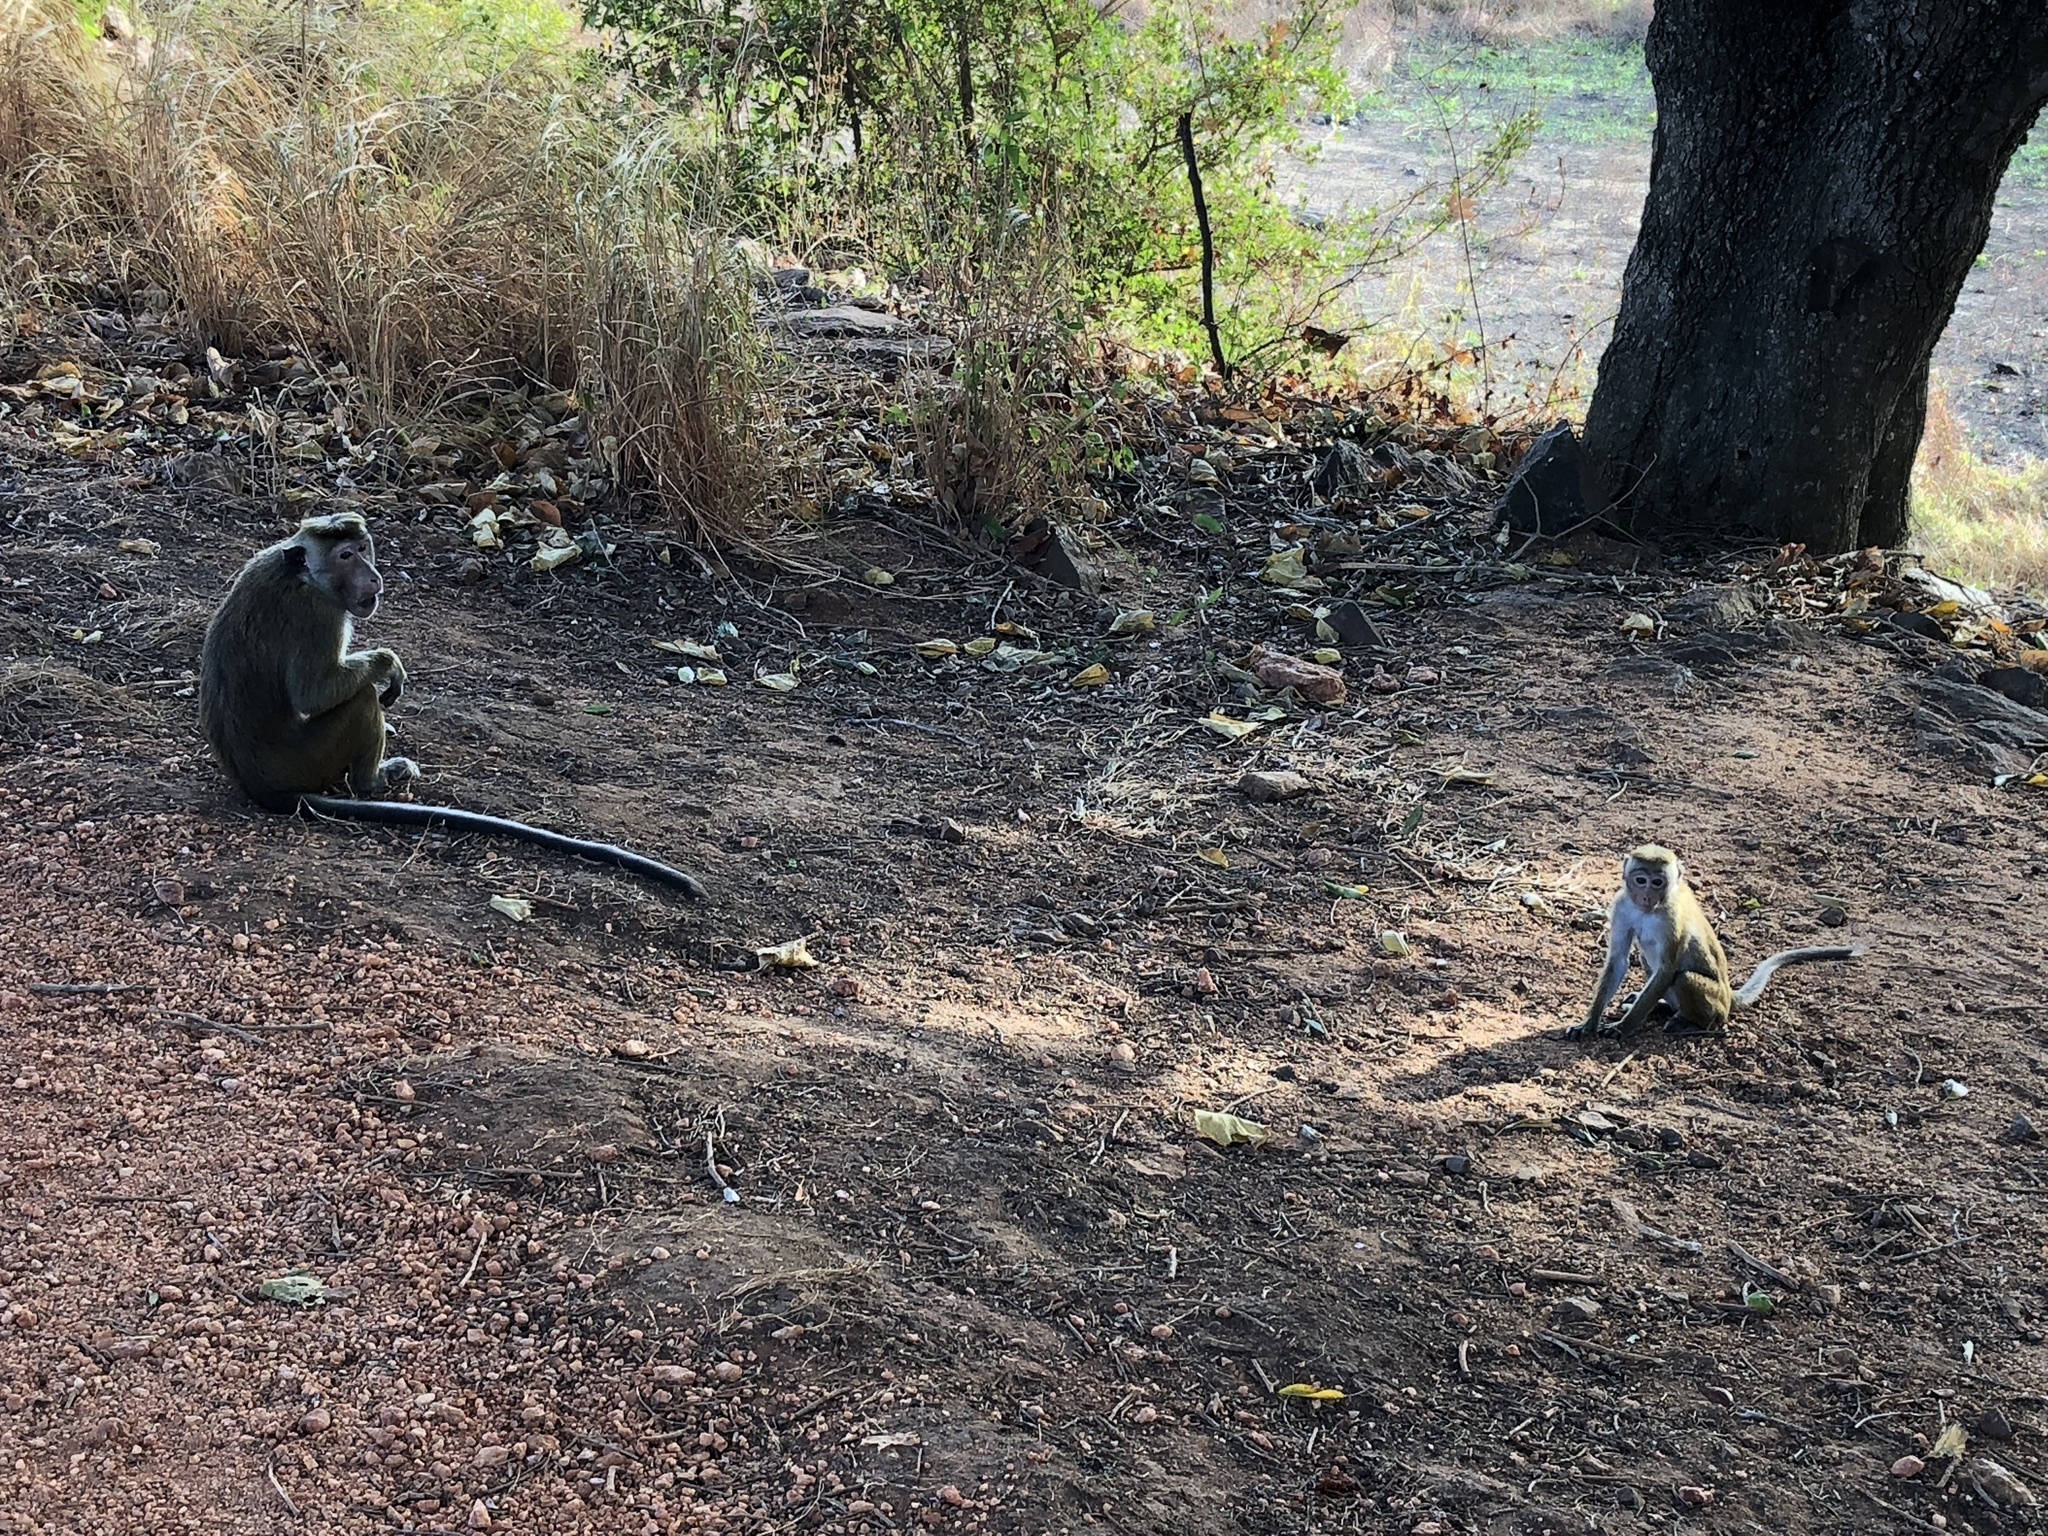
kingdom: Animalia
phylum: Chordata
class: Mammalia
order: Primates
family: Cercopithecidae
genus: Semnopithecus
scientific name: Semnopithecus priam
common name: Tufted gray langur
